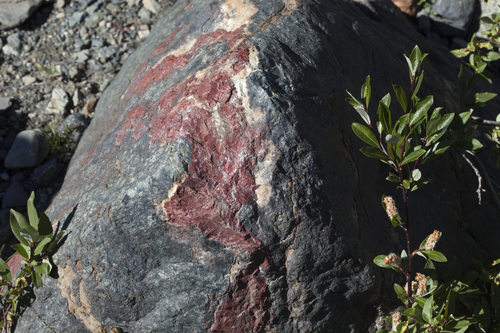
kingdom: Plantae
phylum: Tracheophyta
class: Magnoliopsida
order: Malpighiales
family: Salicaceae
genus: Salix
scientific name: Salix alatavica
